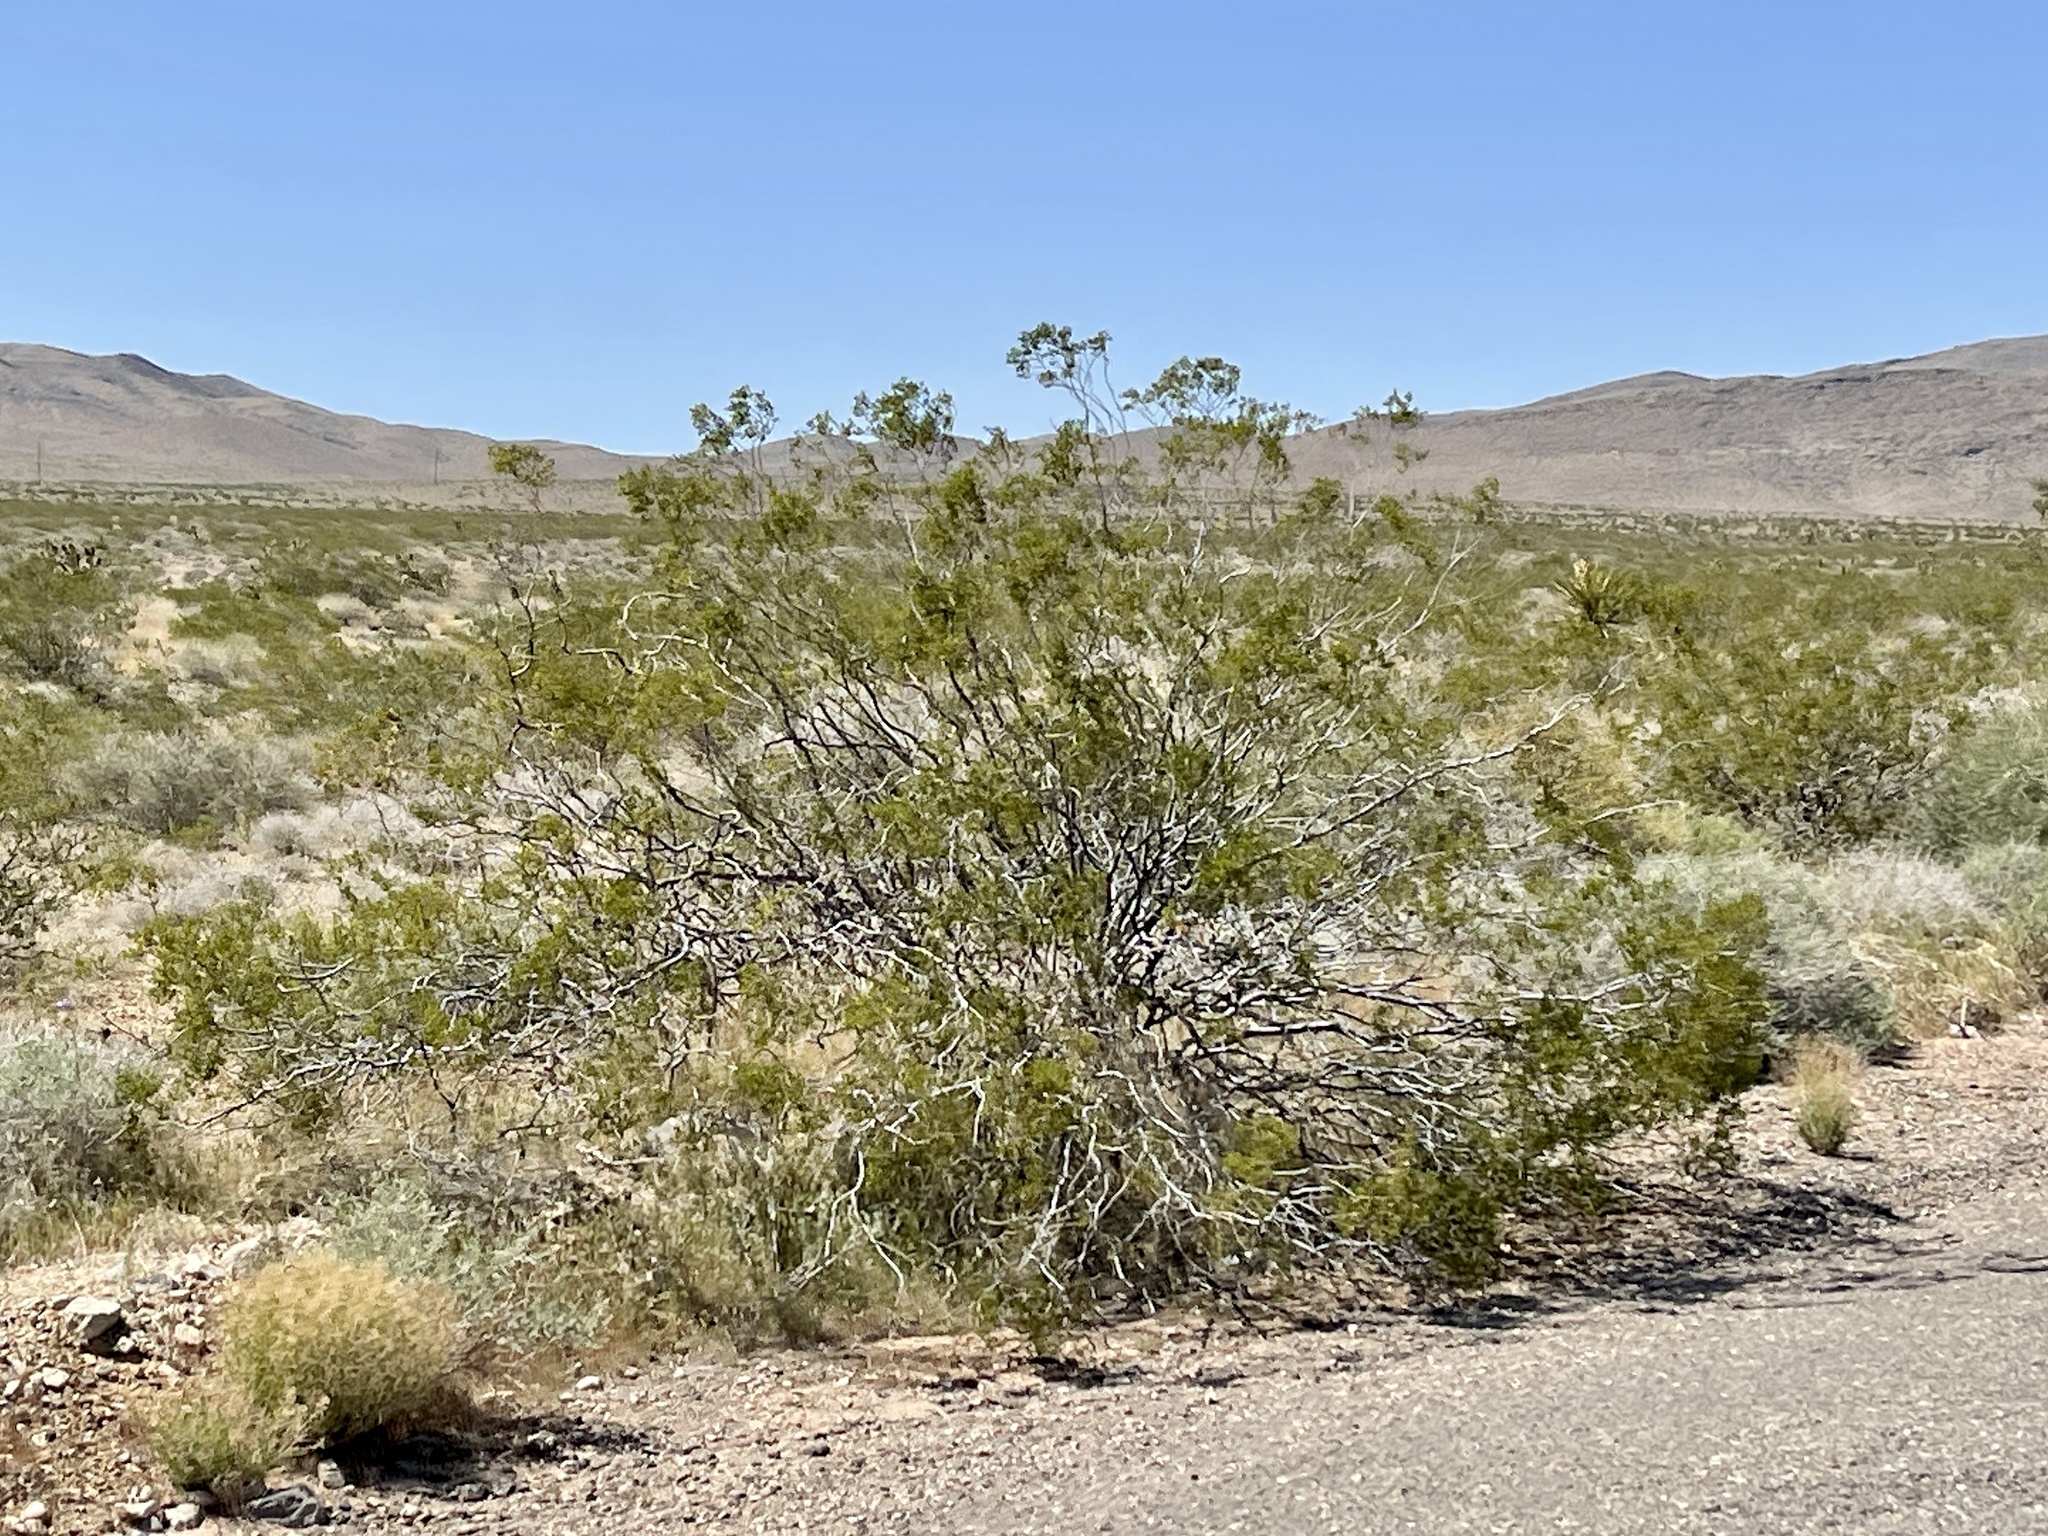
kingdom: Plantae
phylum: Tracheophyta
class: Magnoliopsida
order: Zygophyllales
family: Zygophyllaceae
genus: Larrea
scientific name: Larrea tridentata
